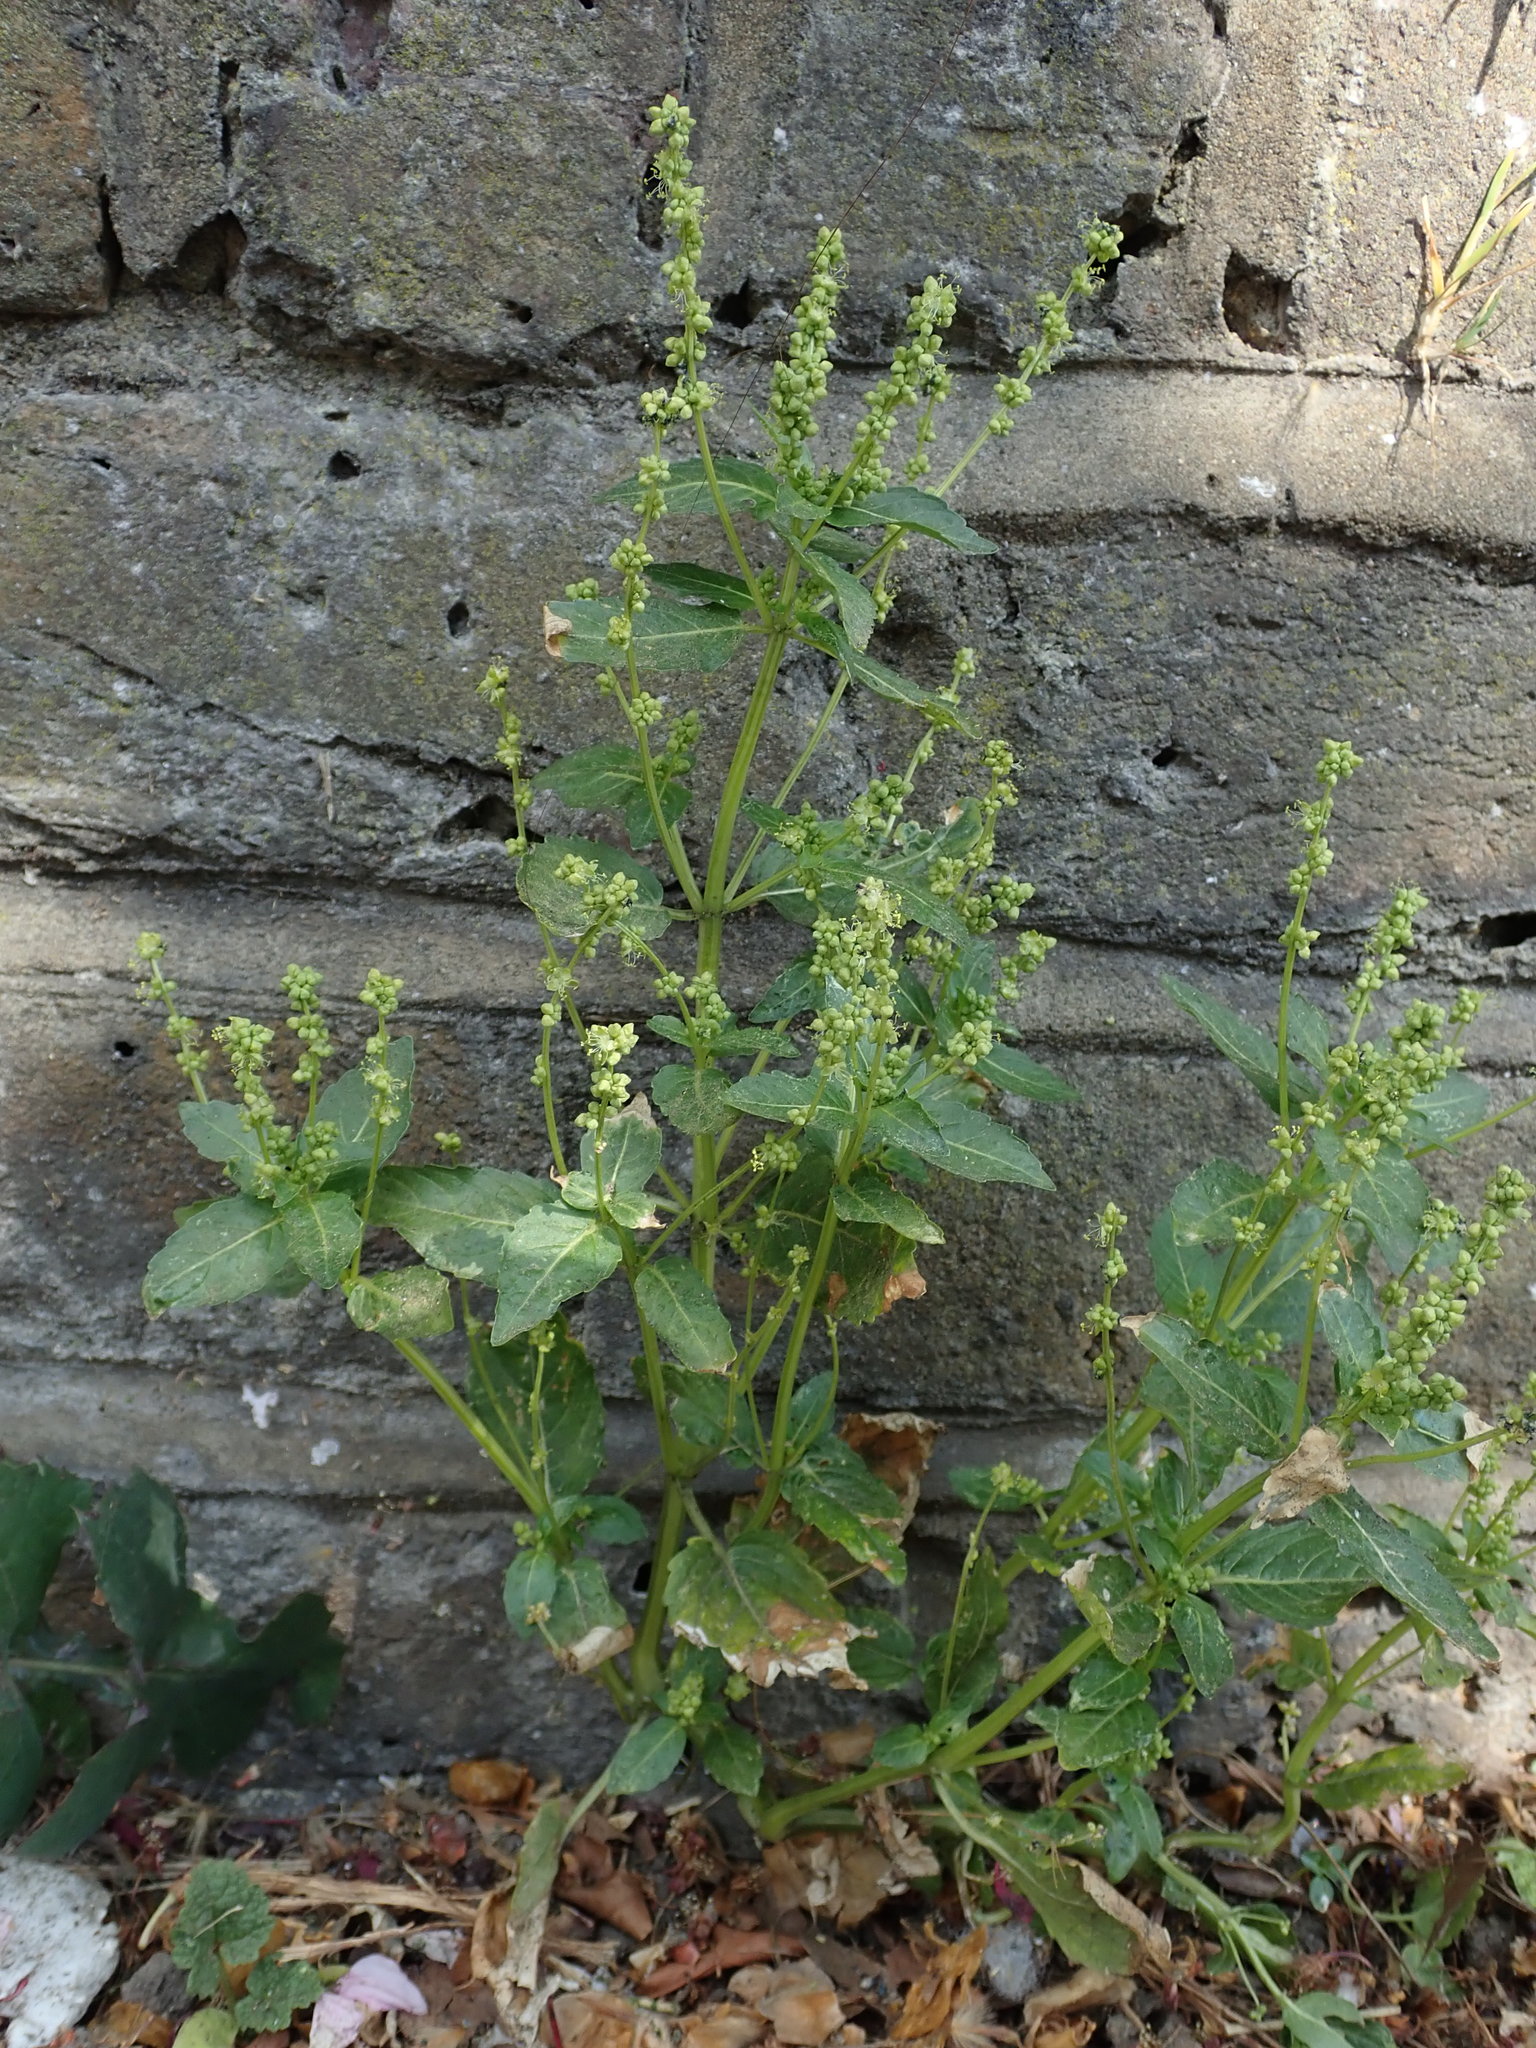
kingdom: Plantae
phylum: Tracheophyta
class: Magnoliopsida
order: Malpighiales
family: Euphorbiaceae
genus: Mercurialis
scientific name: Mercurialis annua
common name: Annual mercury
